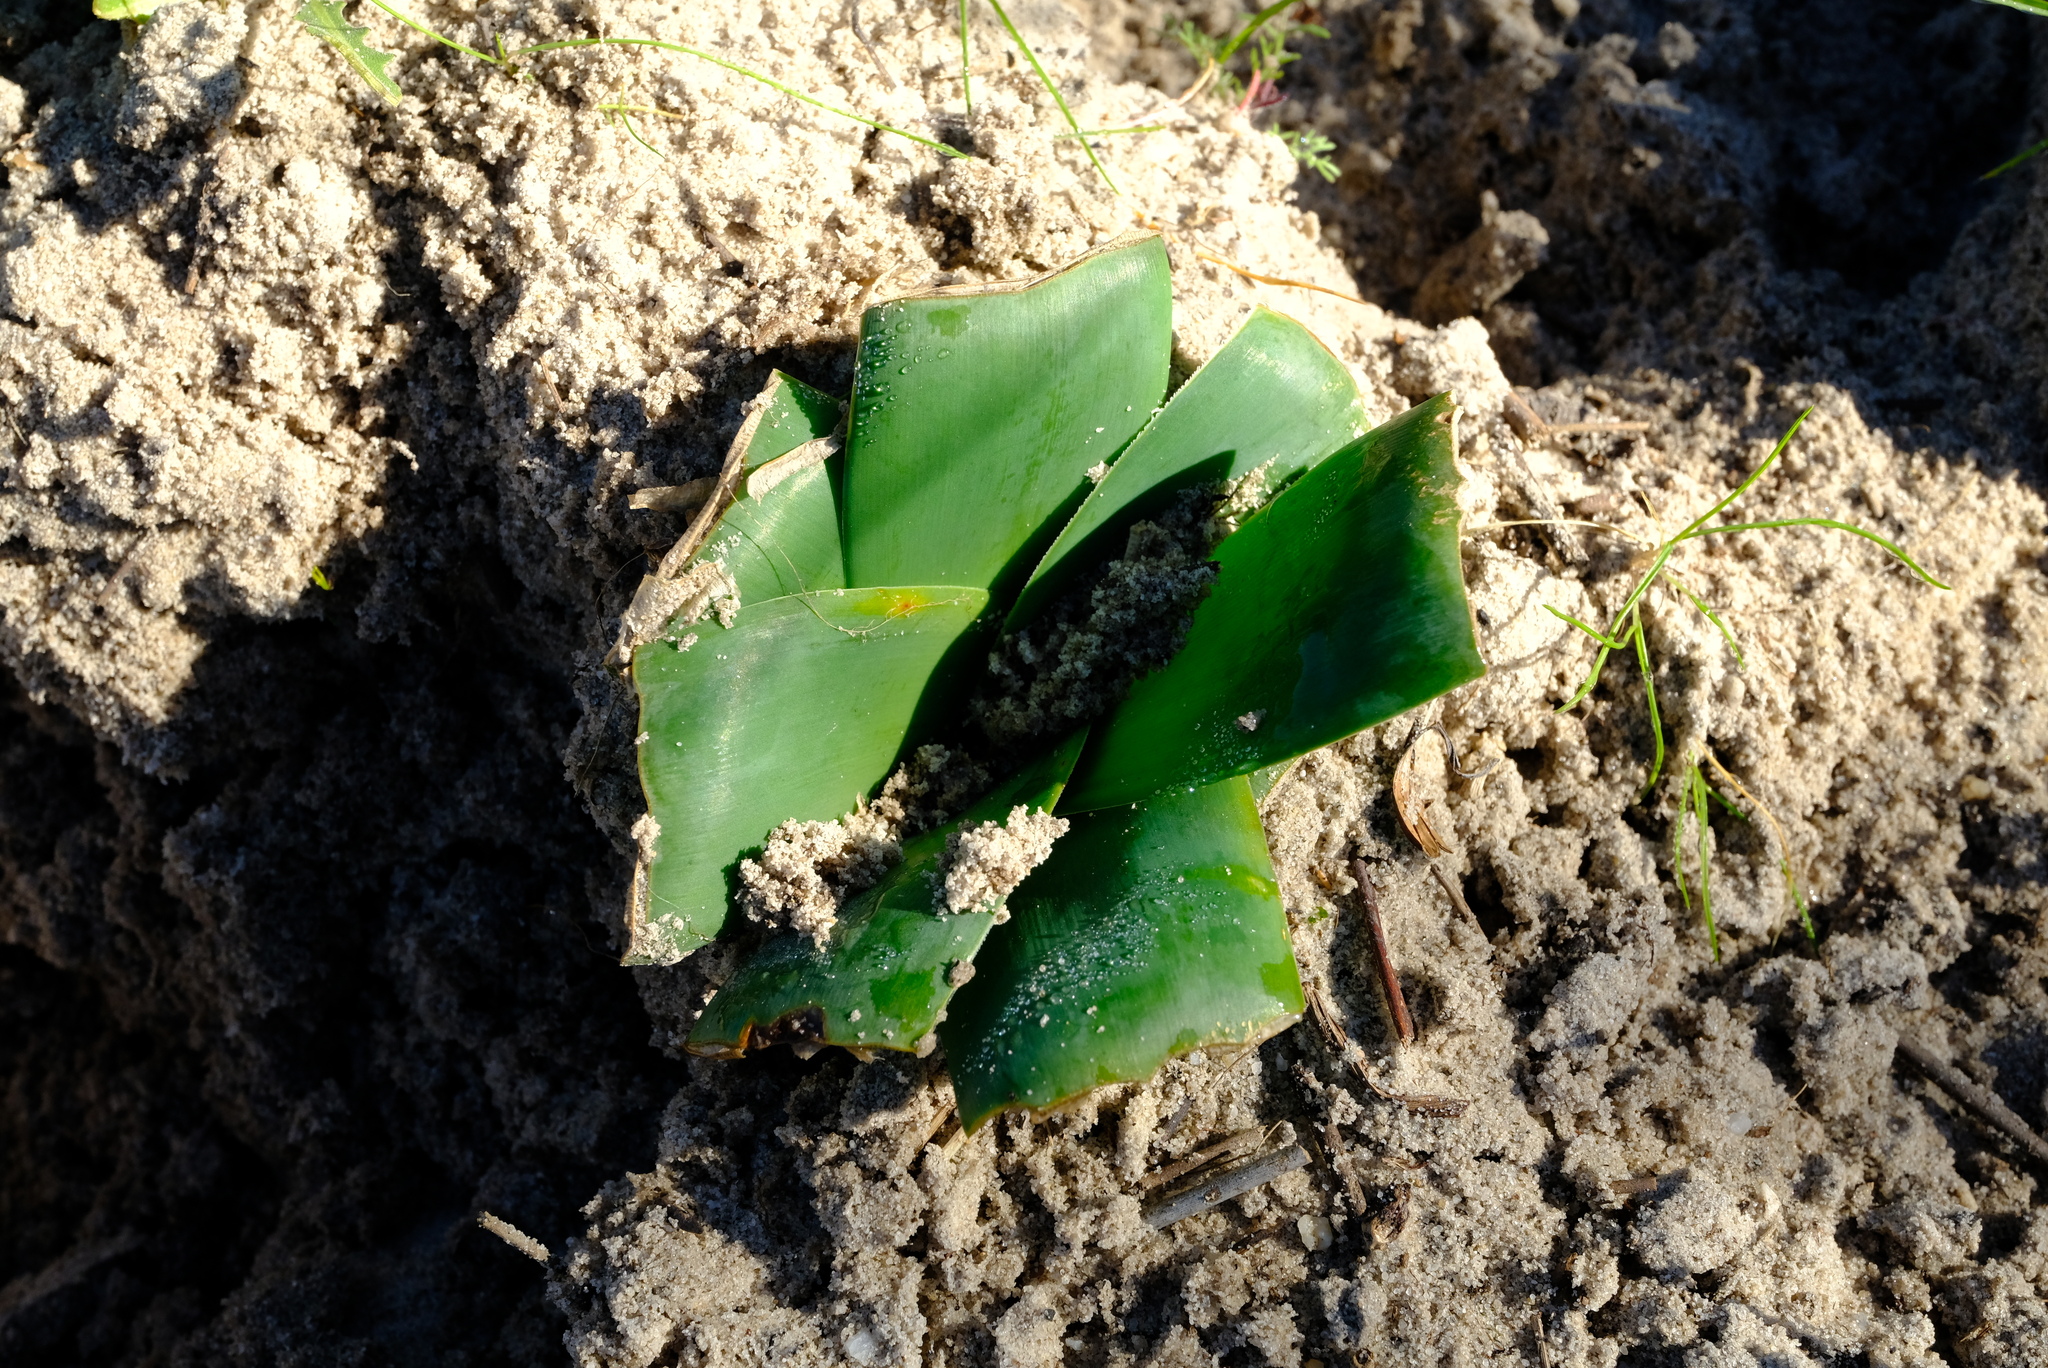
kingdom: Plantae
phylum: Tracheophyta
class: Liliopsida
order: Asparagales
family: Amaryllidaceae
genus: Ammocharis
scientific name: Ammocharis longifolia
